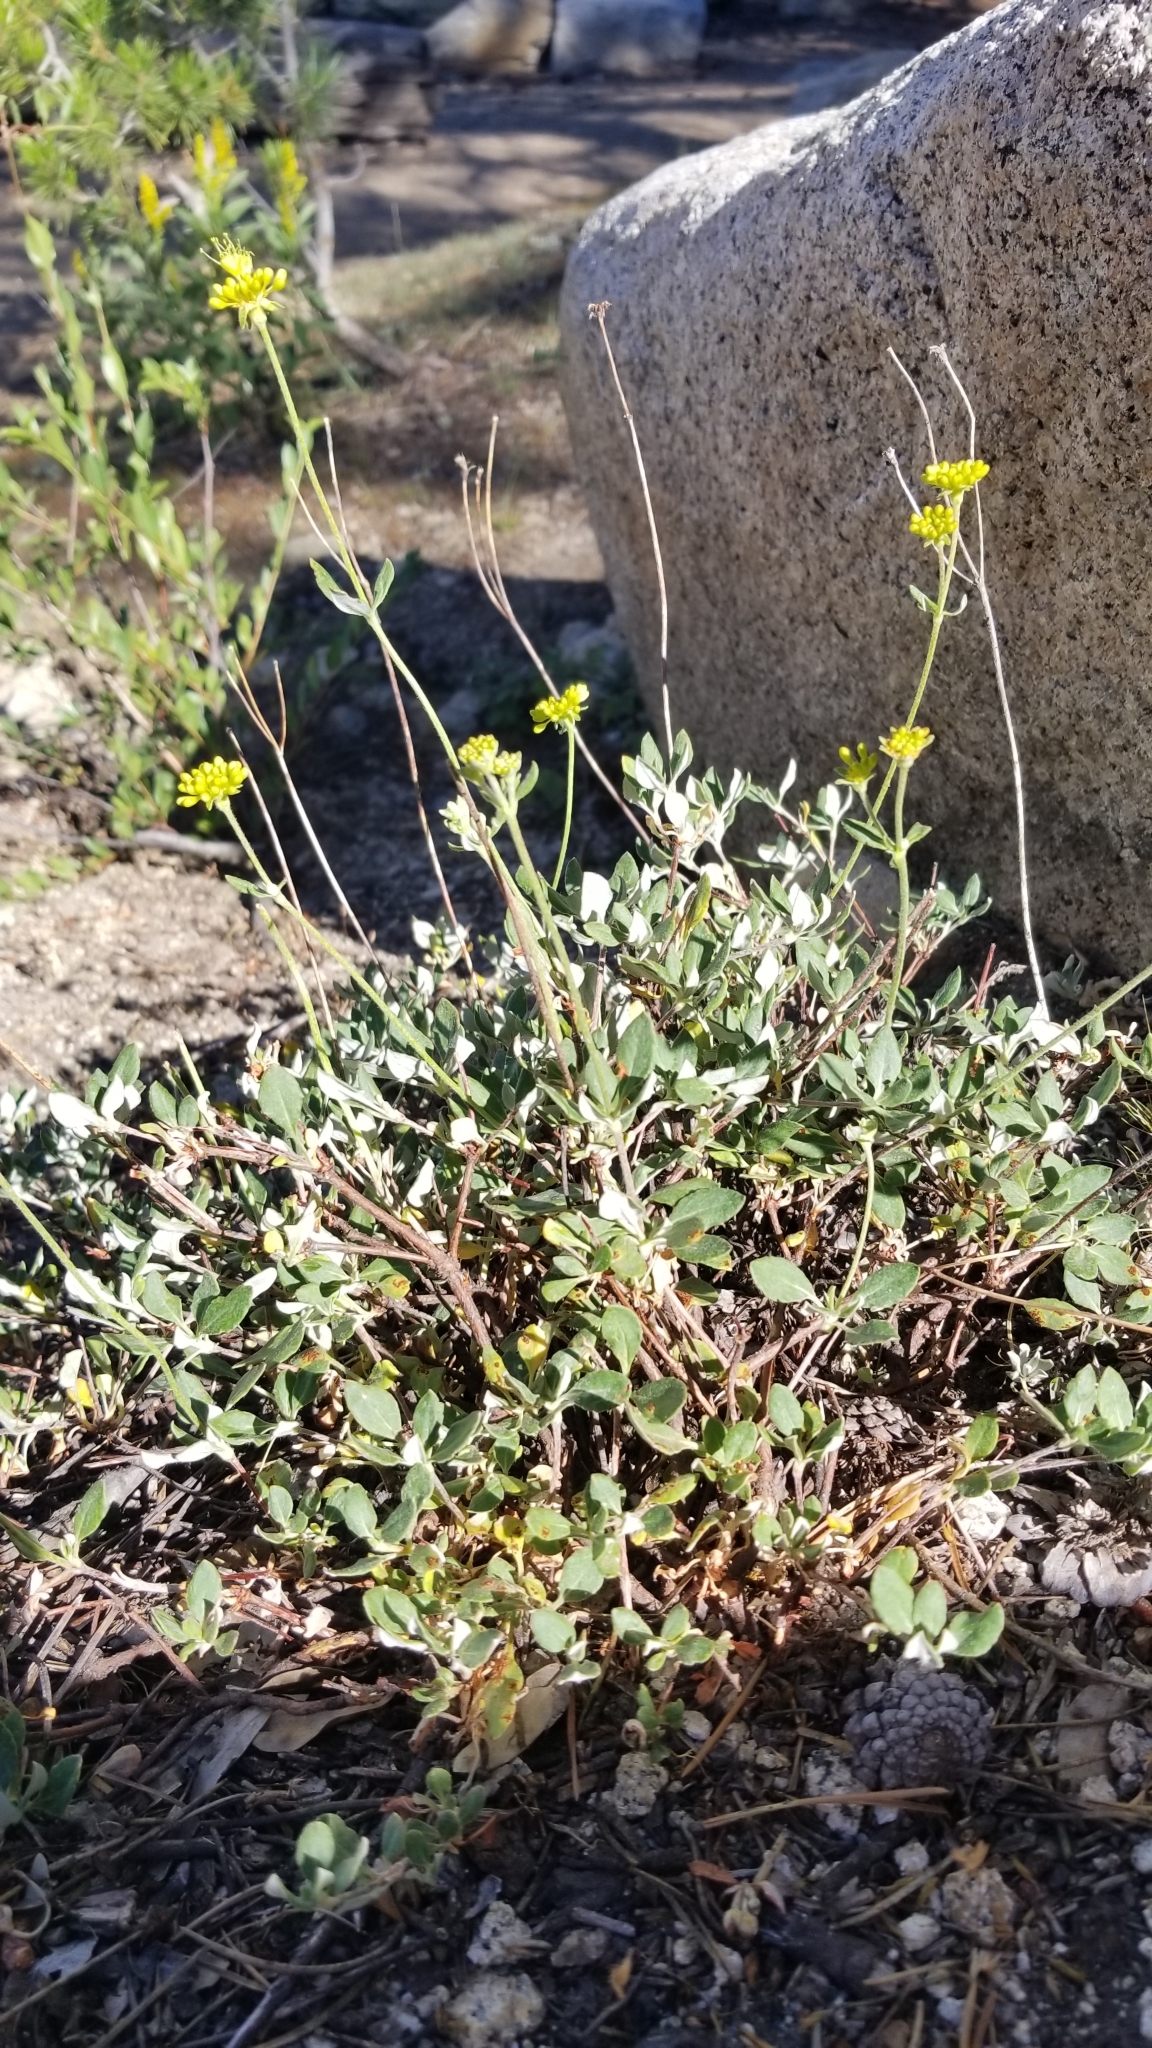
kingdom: Plantae
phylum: Tracheophyta
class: Magnoliopsida
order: Caryophyllales
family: Polygonaceae
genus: Eriogonum
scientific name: Eriogonum umbellatum
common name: Sulfur-buckwheat
